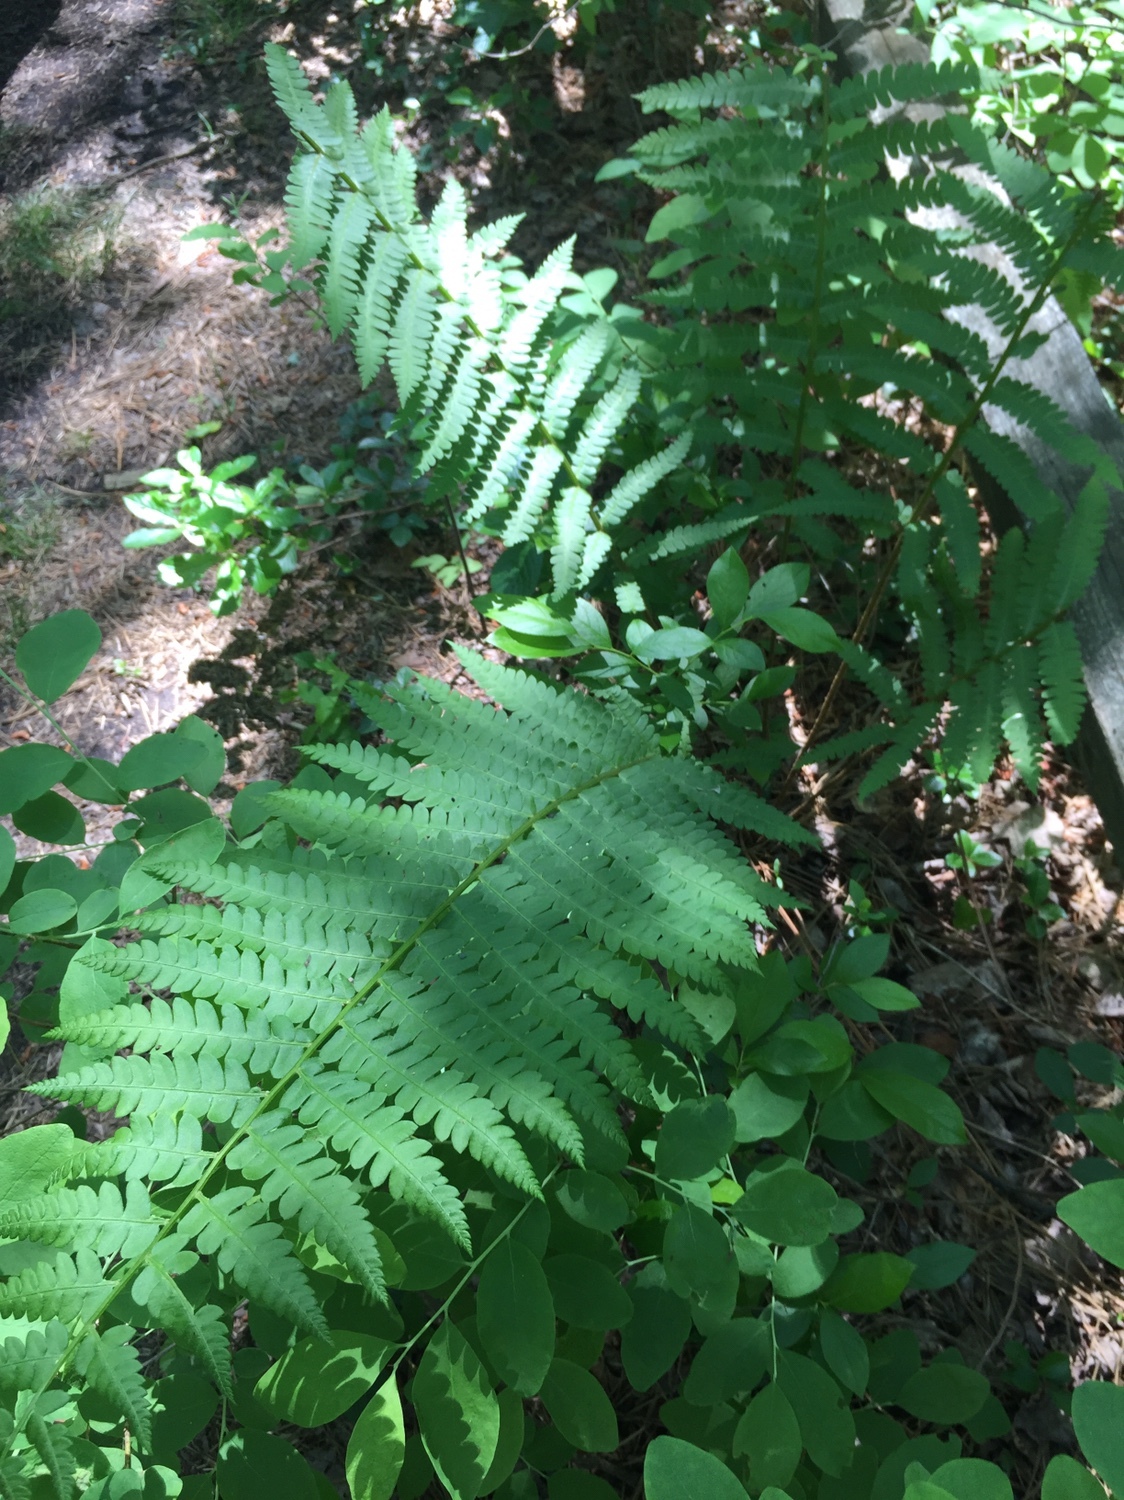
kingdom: Plantae
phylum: Tracheophyta
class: Polypodiopsida
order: Osmundales
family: Osmundaceae
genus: Osmundastrum
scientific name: Osmundastrum cinnamomeum
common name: Cinnamon fern
